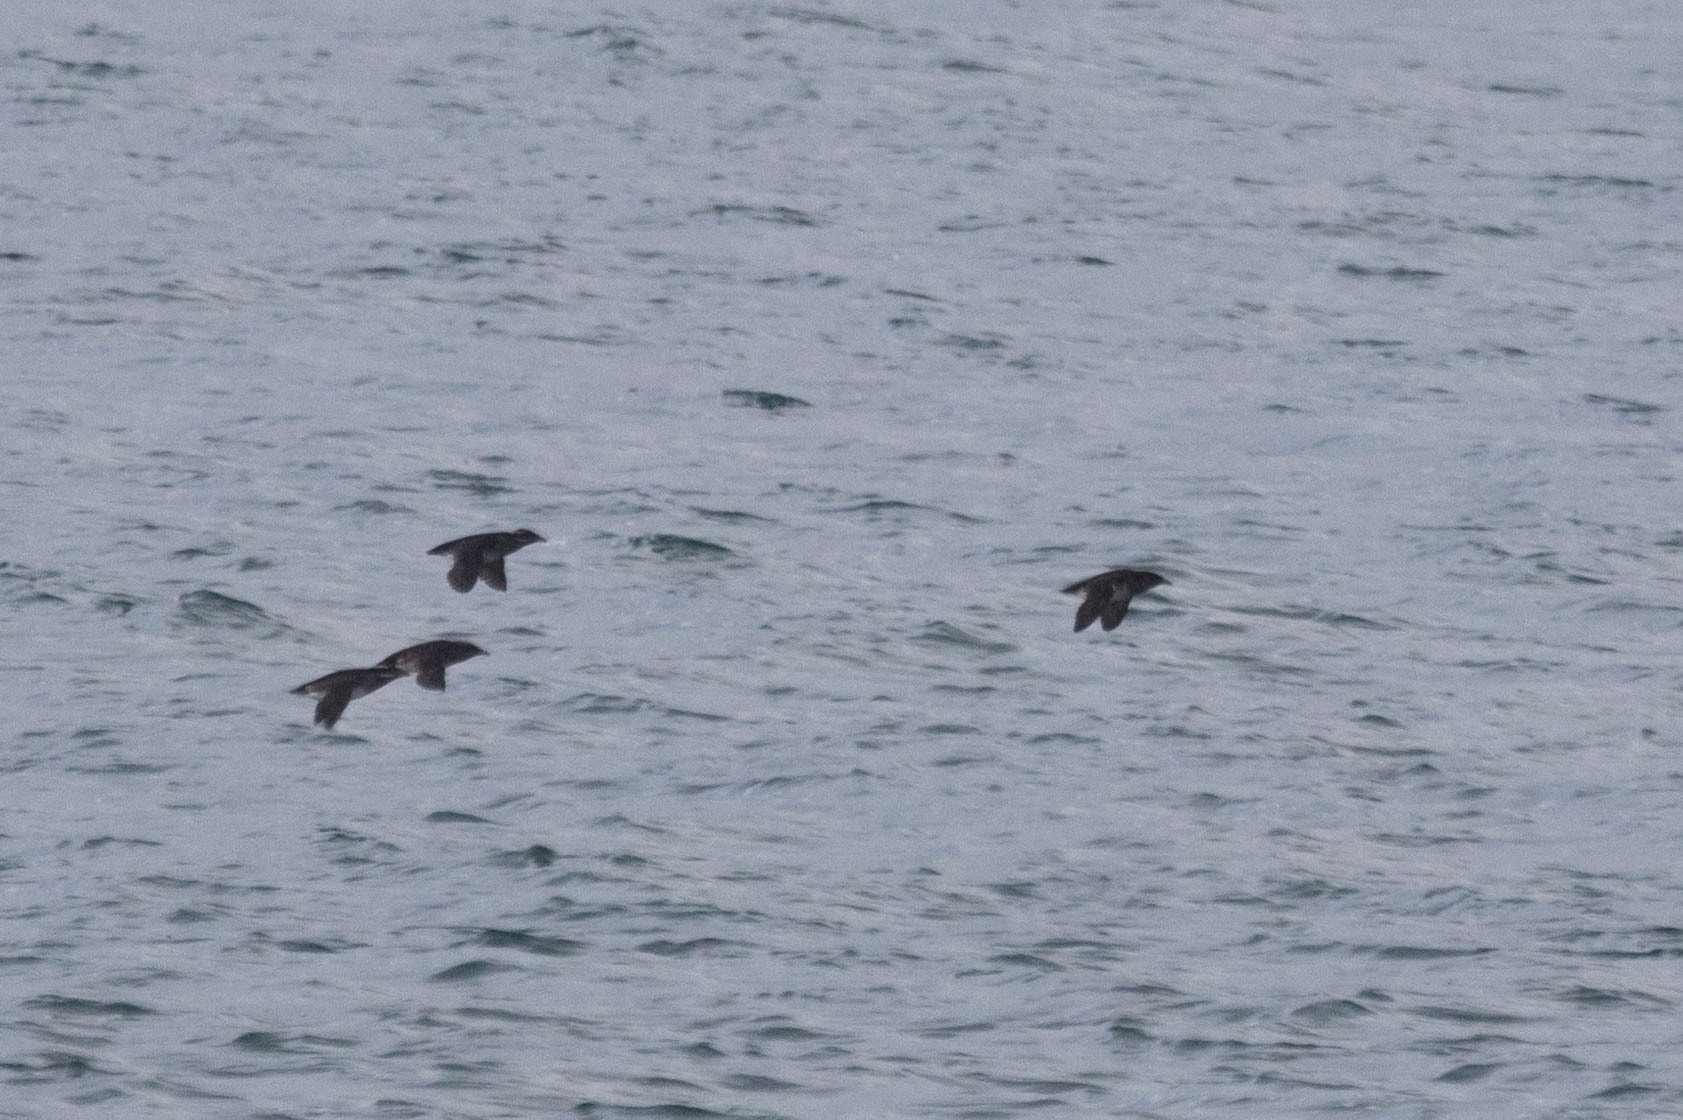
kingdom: Animalia
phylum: Chordata
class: Aves
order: Charadriiformes
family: Alcidae
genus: Cerorhinca
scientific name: Cerorhinca monocerata
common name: Rhinoceros auklet
